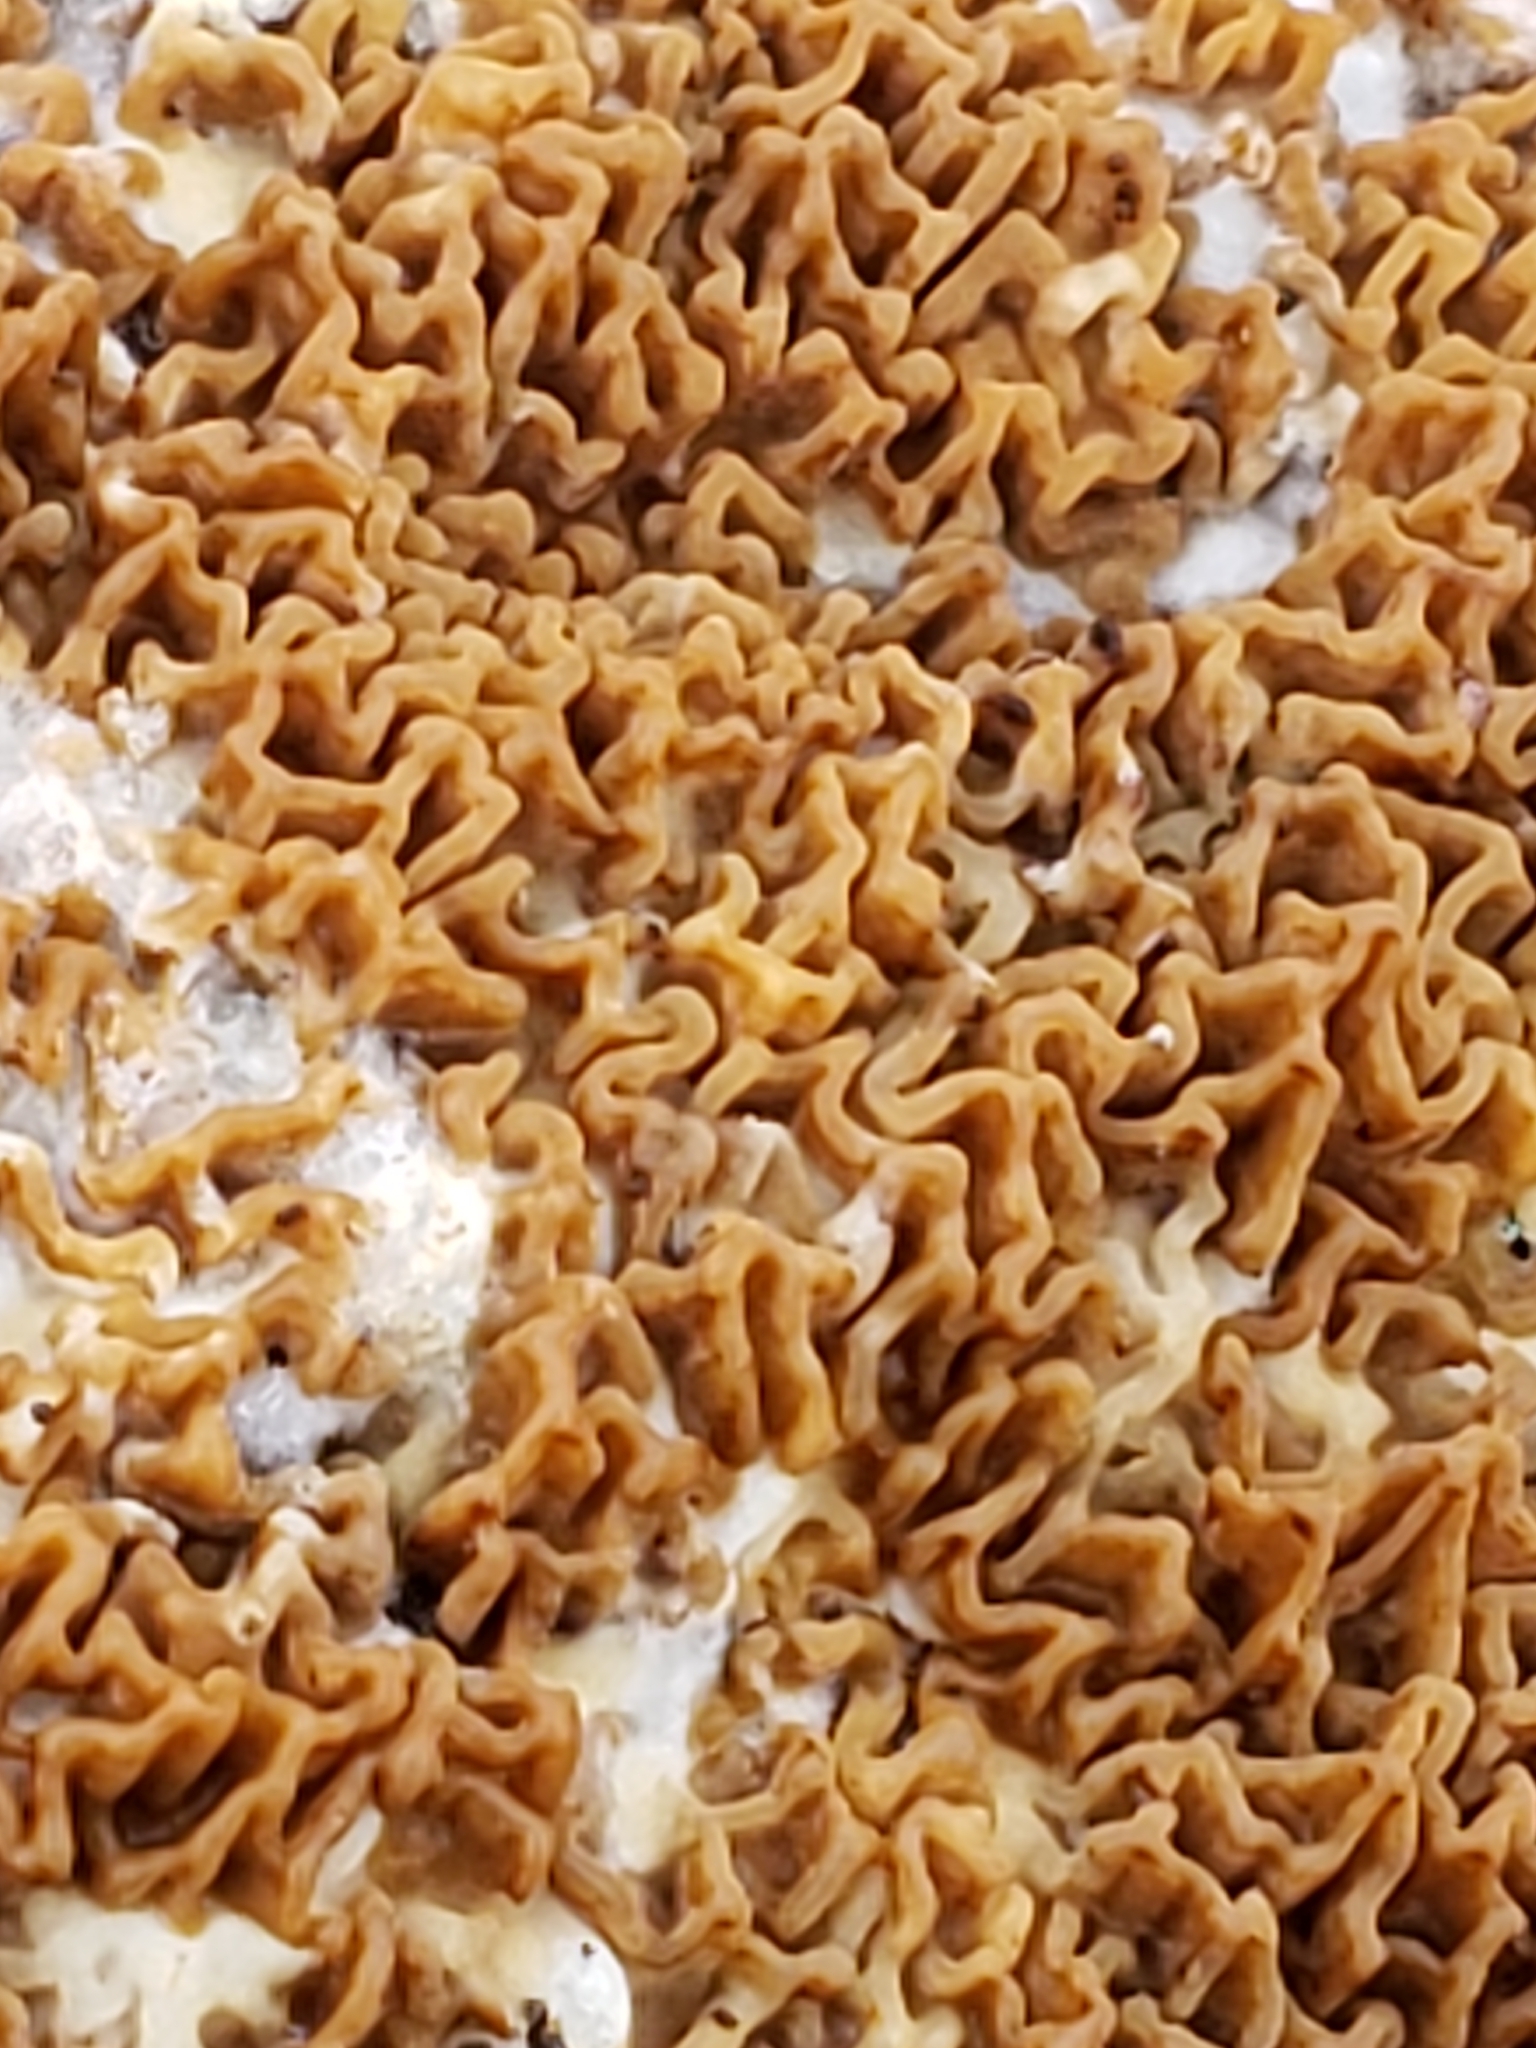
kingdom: Fungi
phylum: Basidiomycota
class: Agaricomycetes
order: Boletales
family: Serpulaceae
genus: Serpula
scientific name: Serpula himantioides
